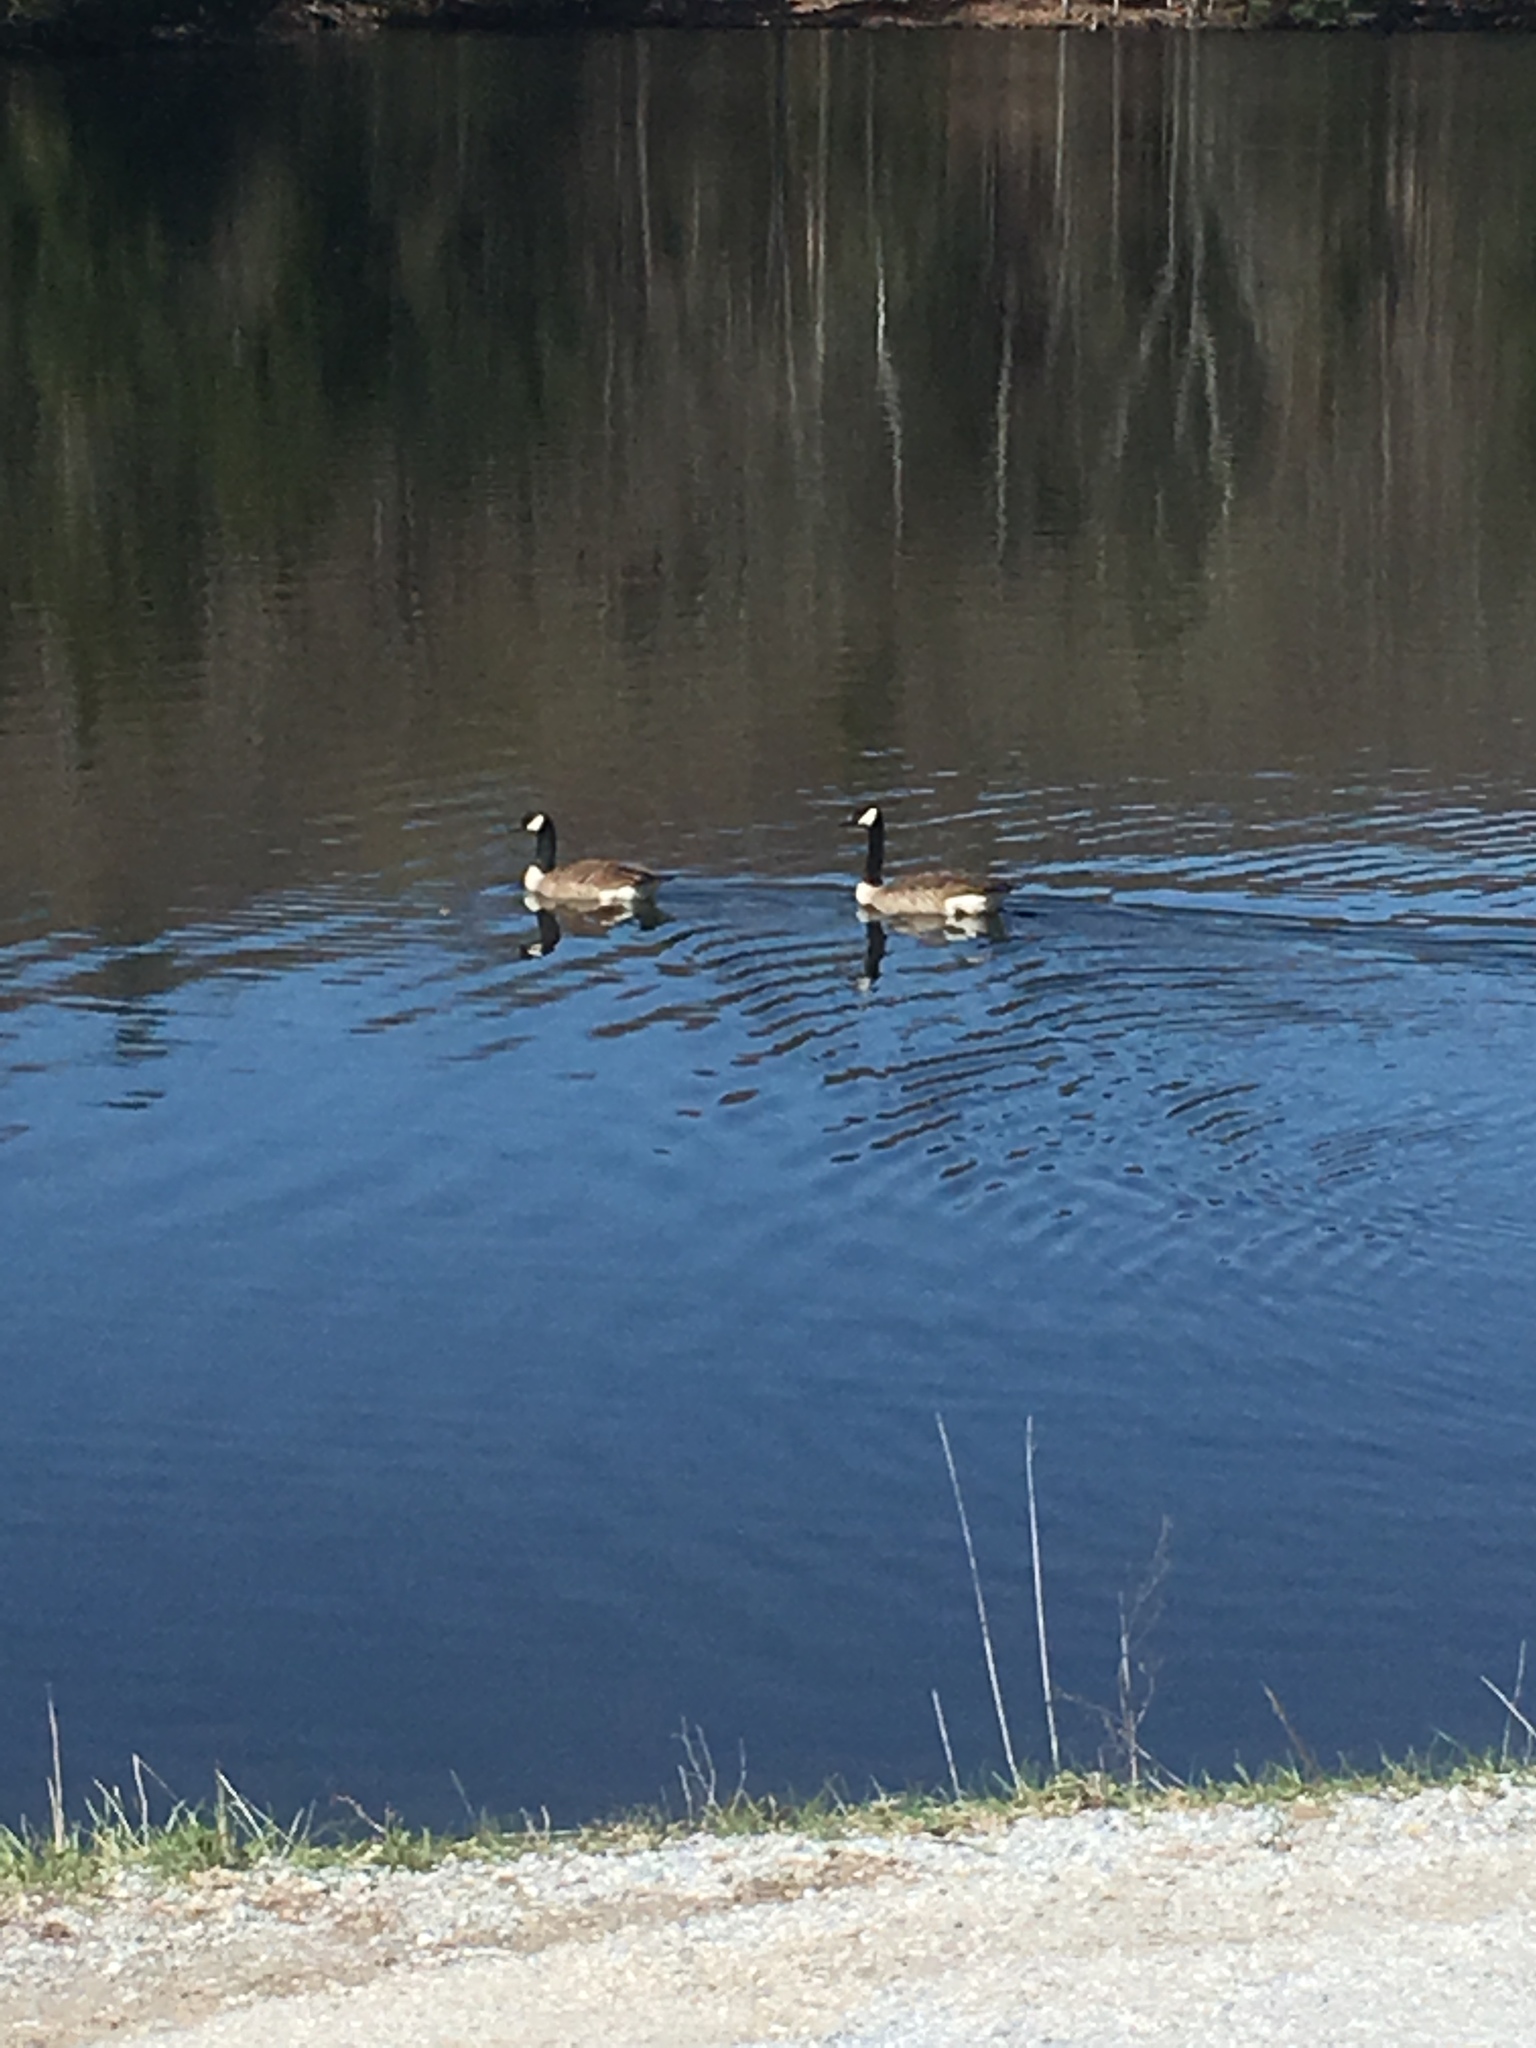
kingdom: Animalia
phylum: Chordata
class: Aves
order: Anseriformes
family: Anatidae
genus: Branta
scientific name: Branta canadensis
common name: Canada goose
